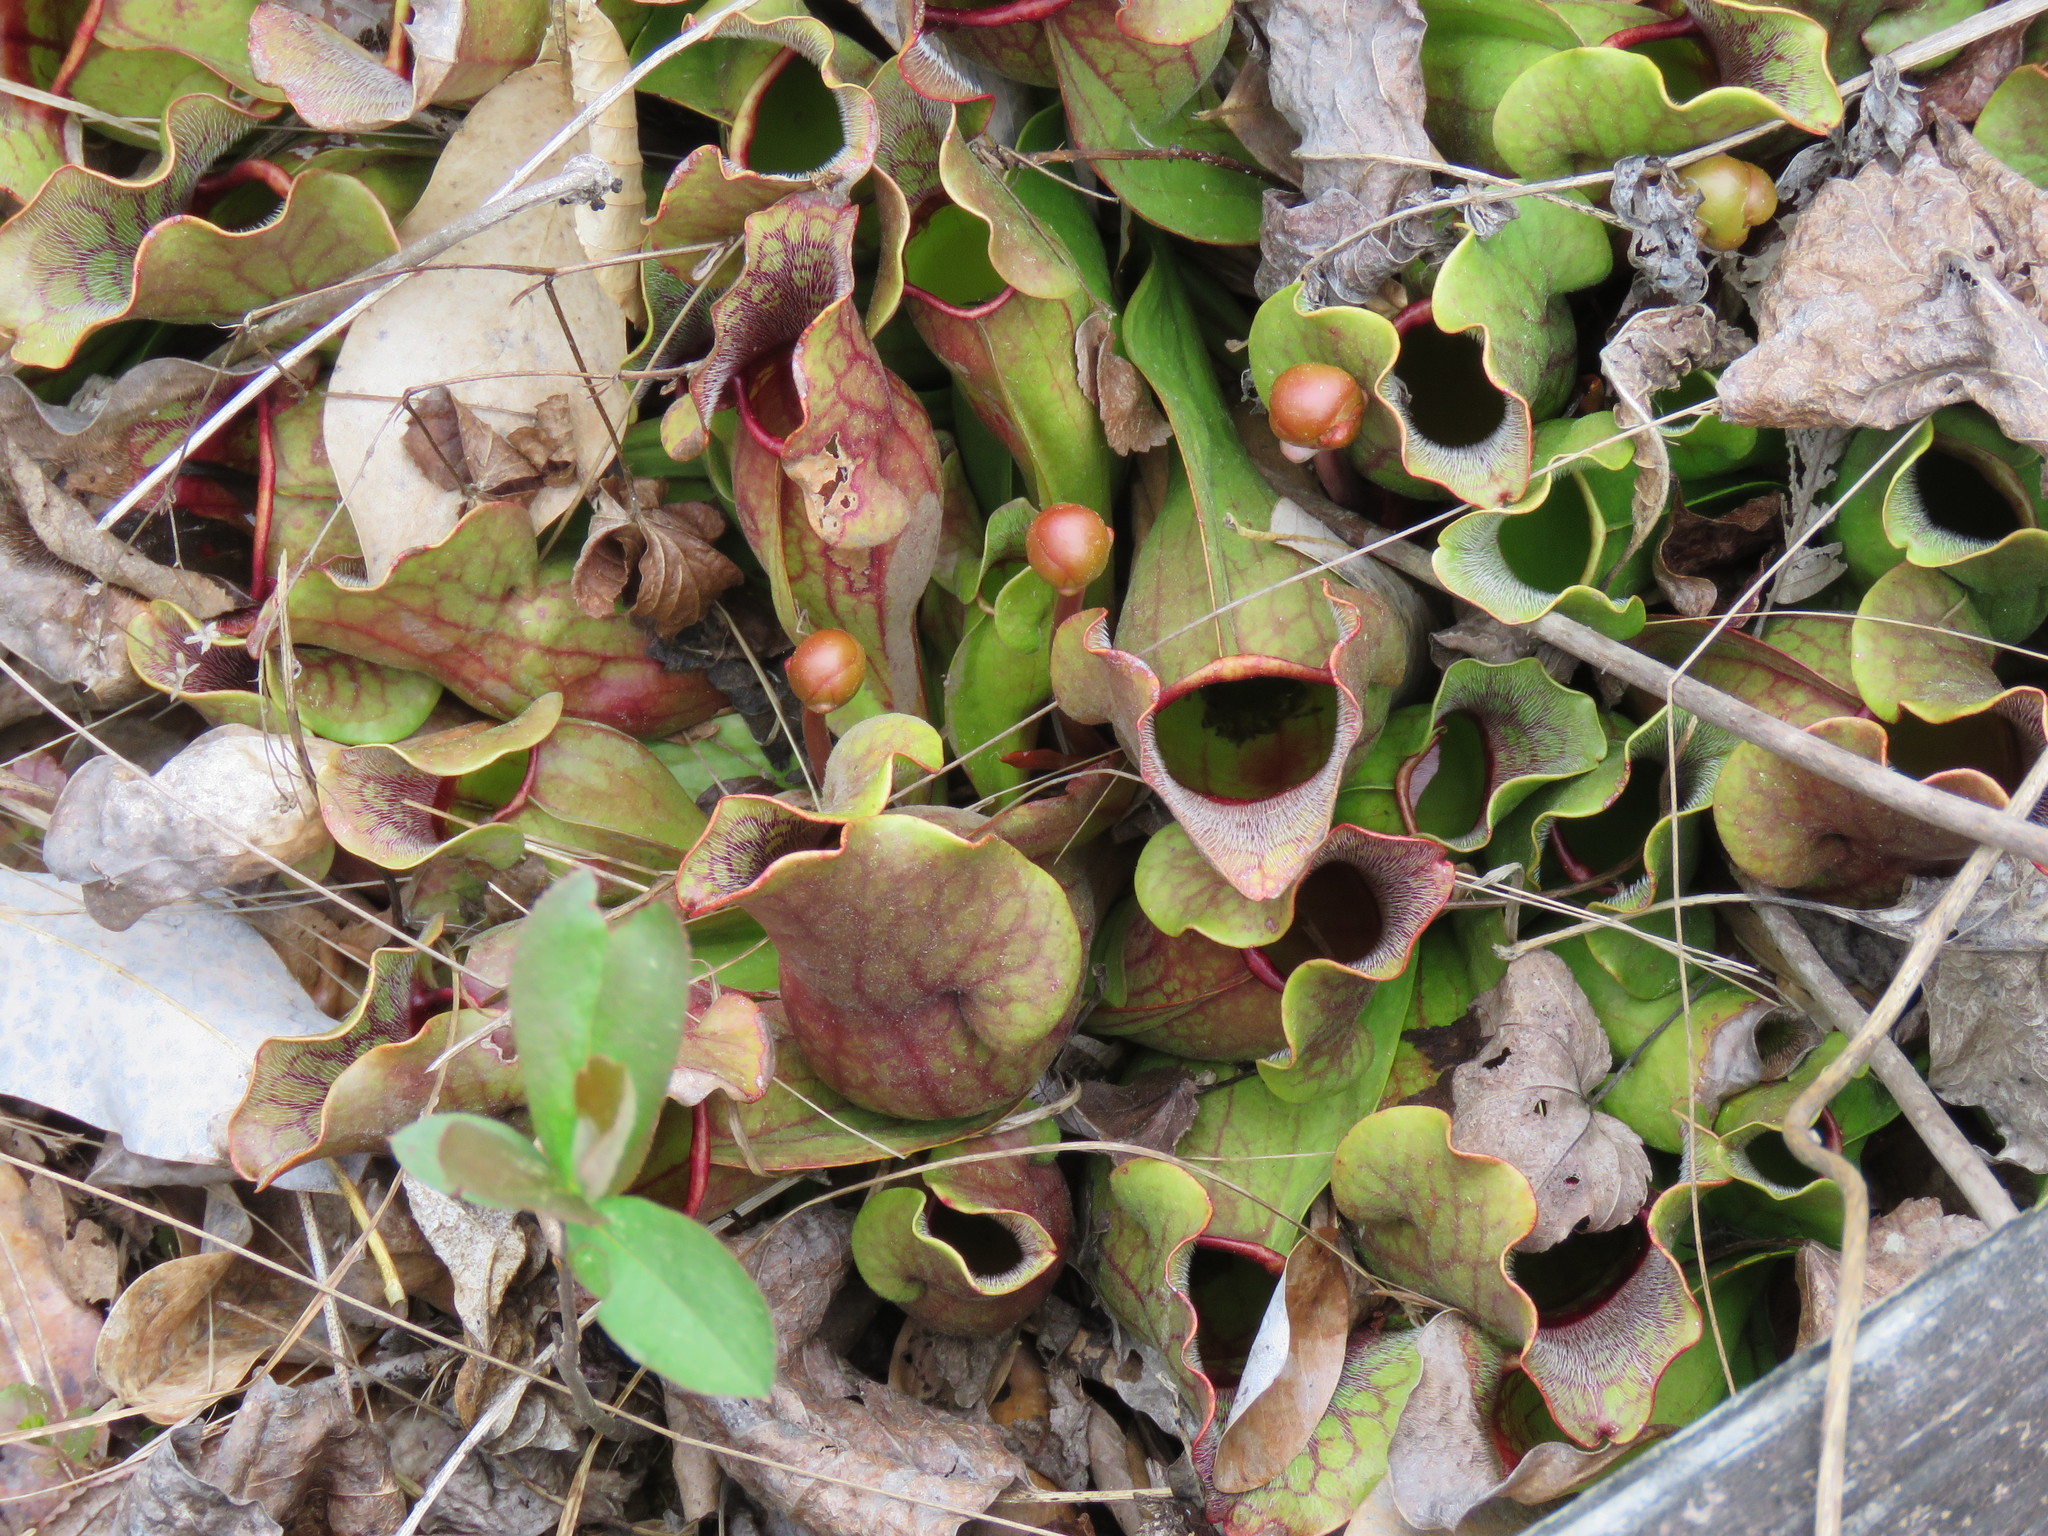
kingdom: Plantae
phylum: Tracheophyta
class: Magnoliopsida
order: Ericales
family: Sarraceniaceae
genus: Sarracenia
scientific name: Sarracenia purpurea
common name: Pitcherplant
